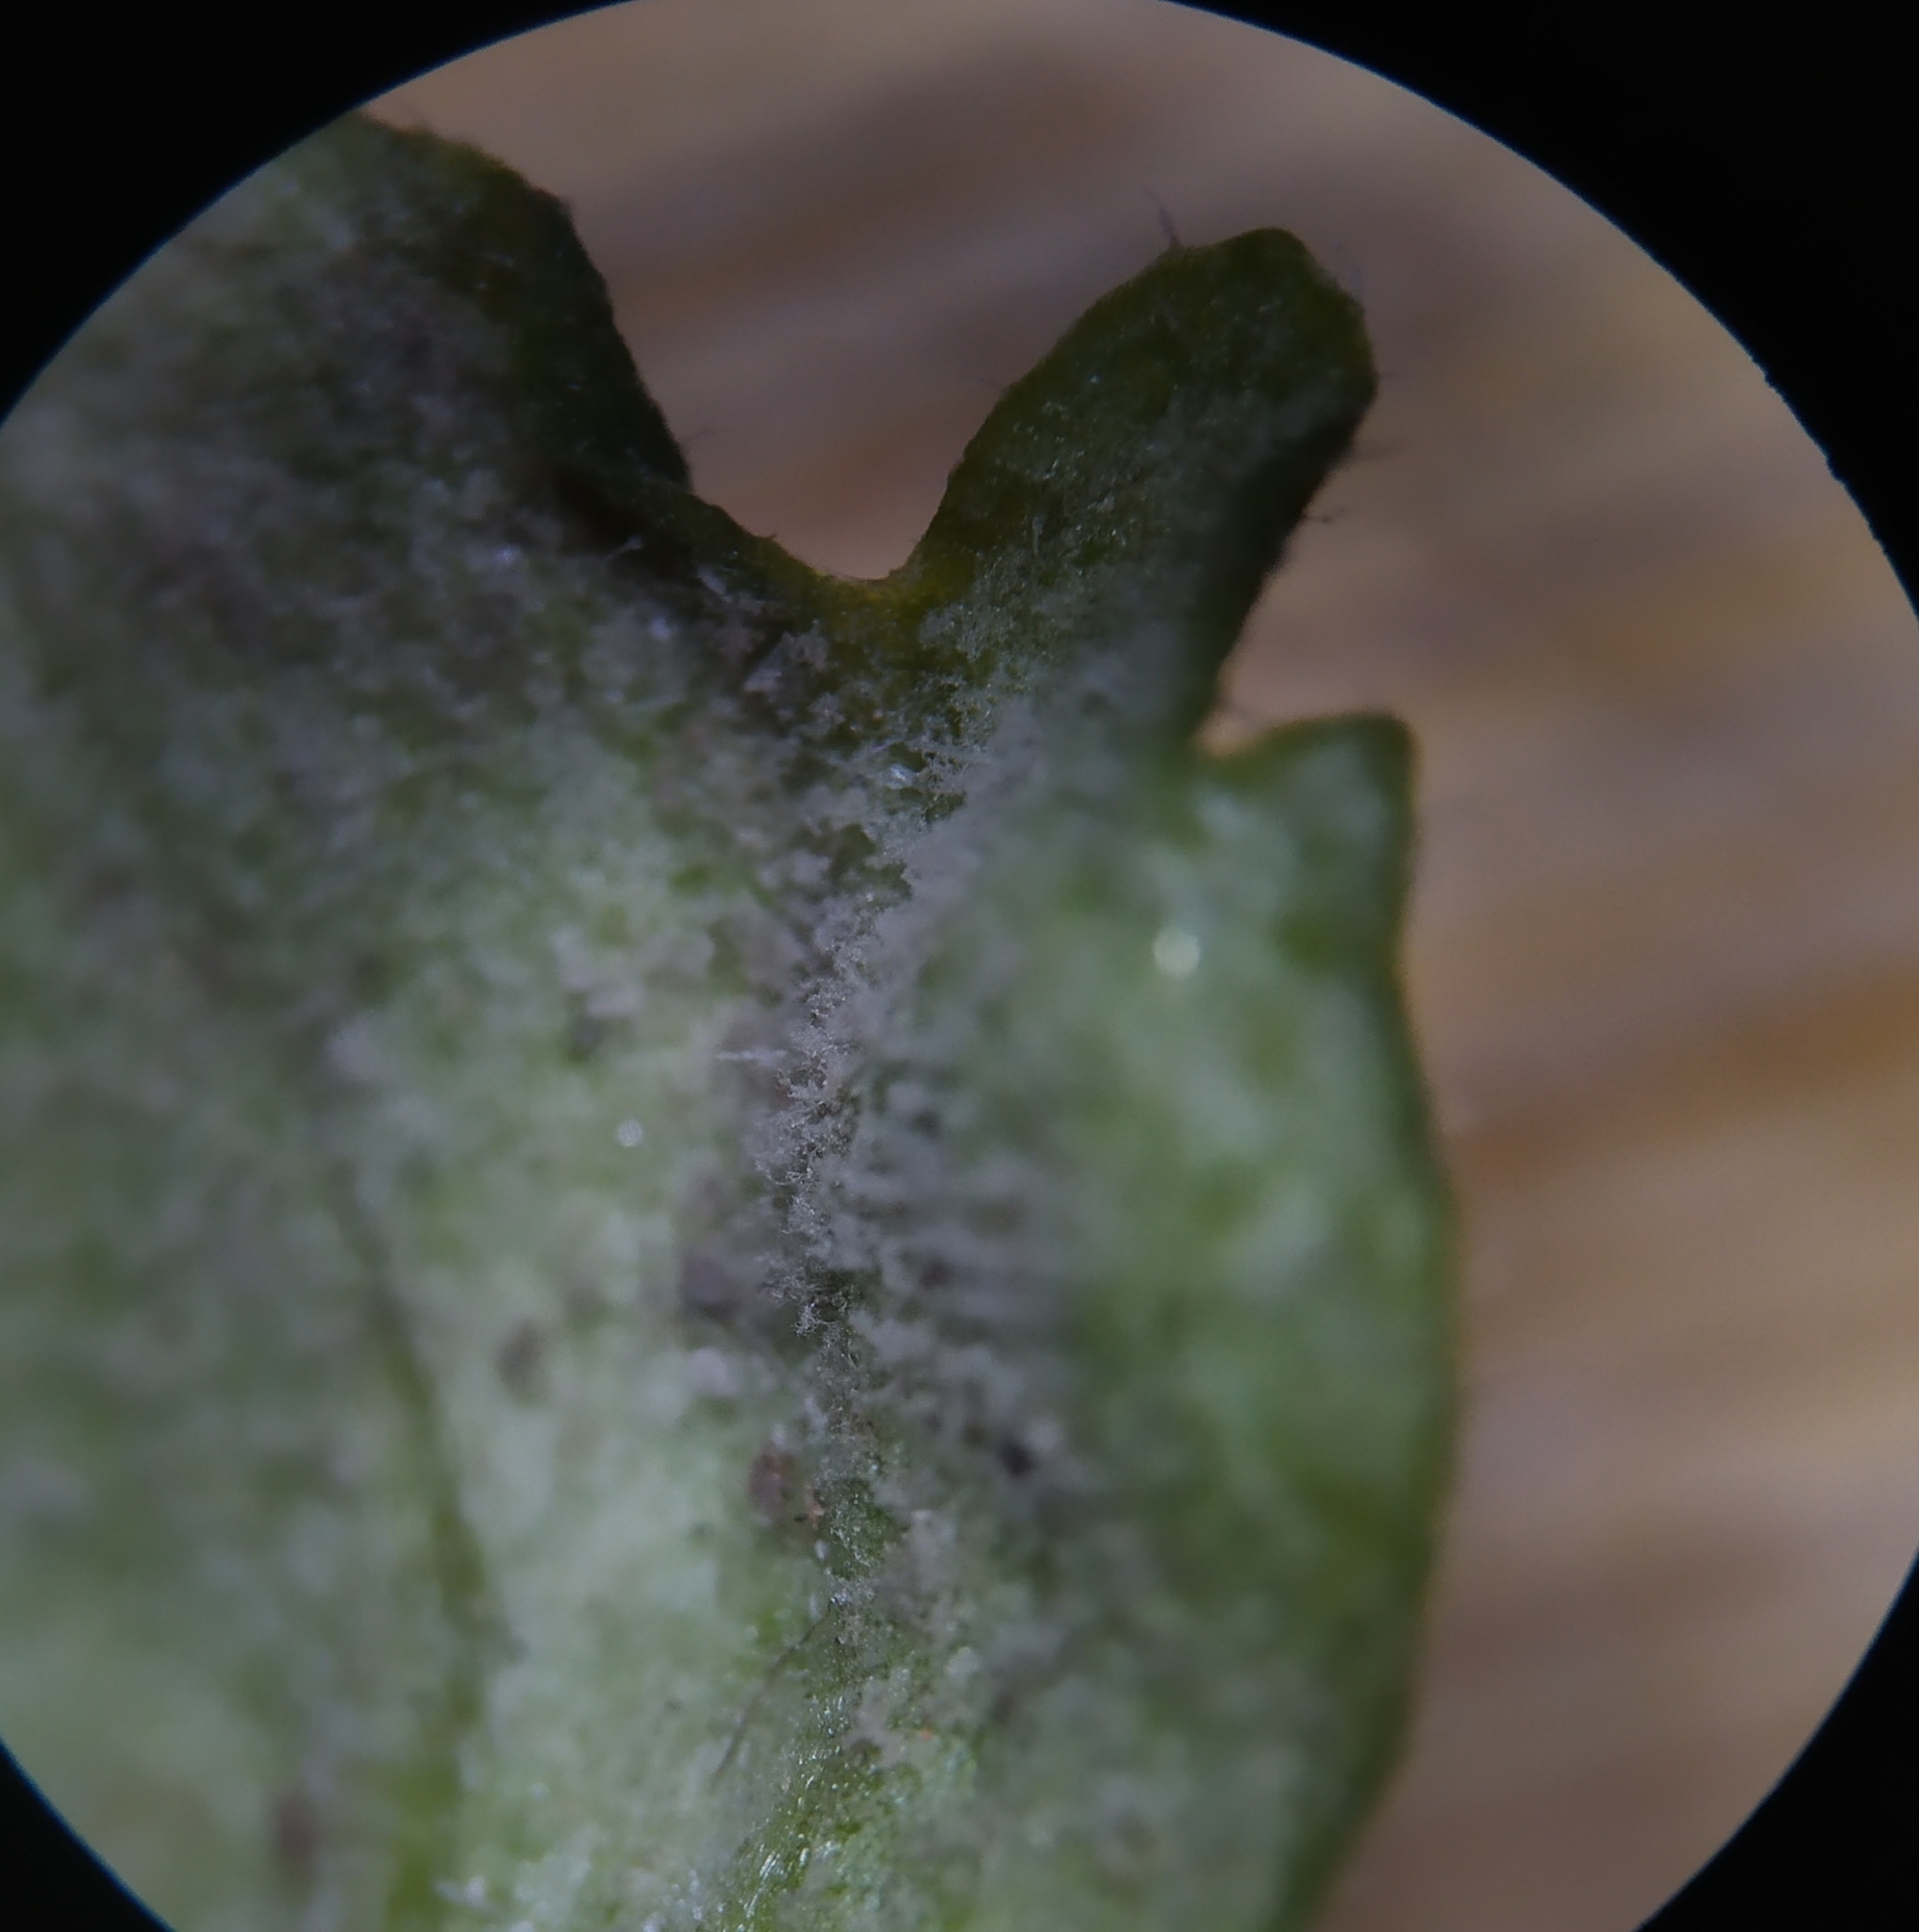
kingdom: Chromista
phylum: Oomycota
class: Peronosporea
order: Peronosporales
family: Peronosporaceae
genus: Peronospora
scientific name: Peronospora arvensis
